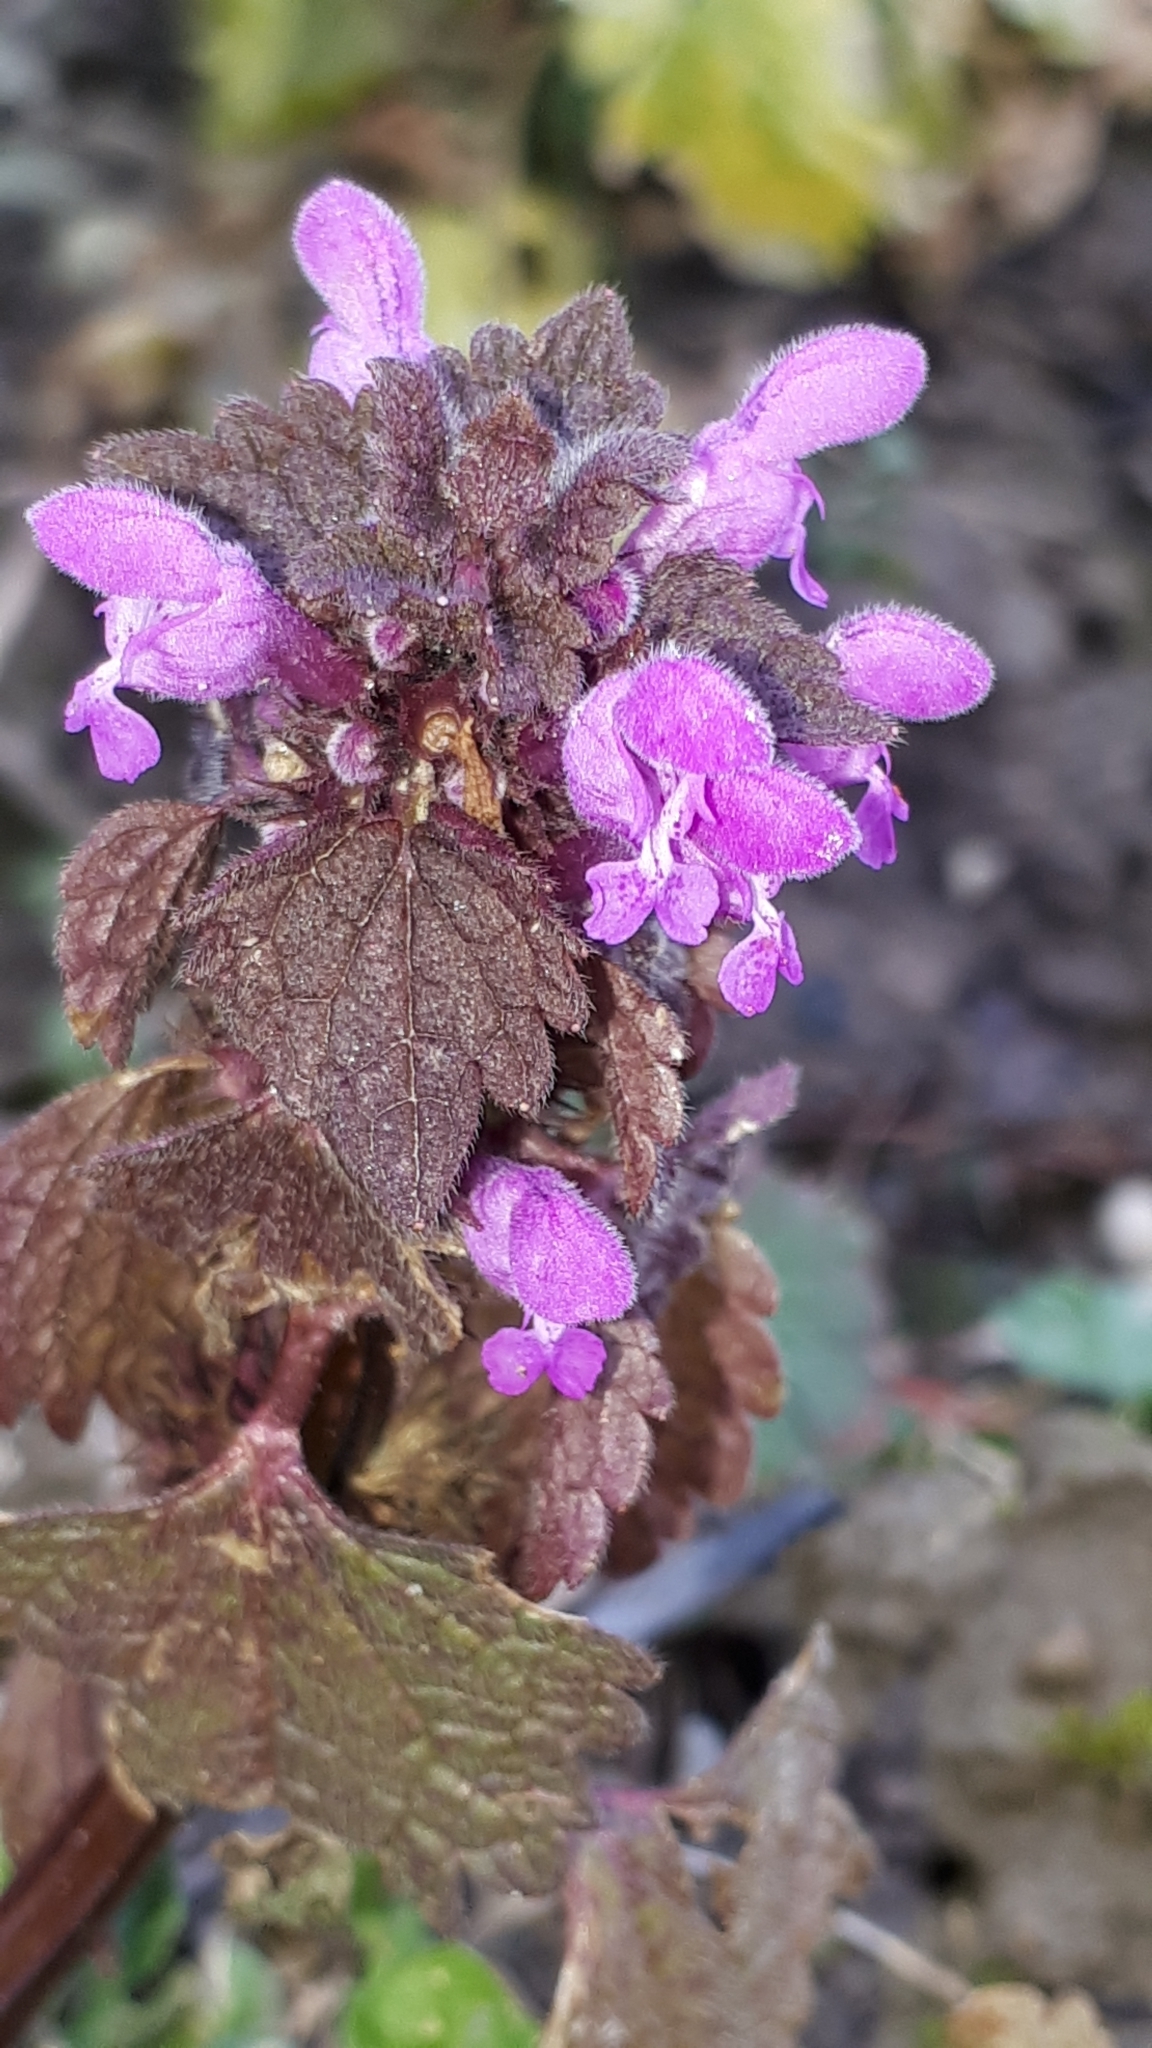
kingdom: Plantae
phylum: Tracheophyta
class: Magnoliopsida
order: Lamiales
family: Lamiaceae
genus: Lamium
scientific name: Lamium purpureum
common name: Red dead-nettle
